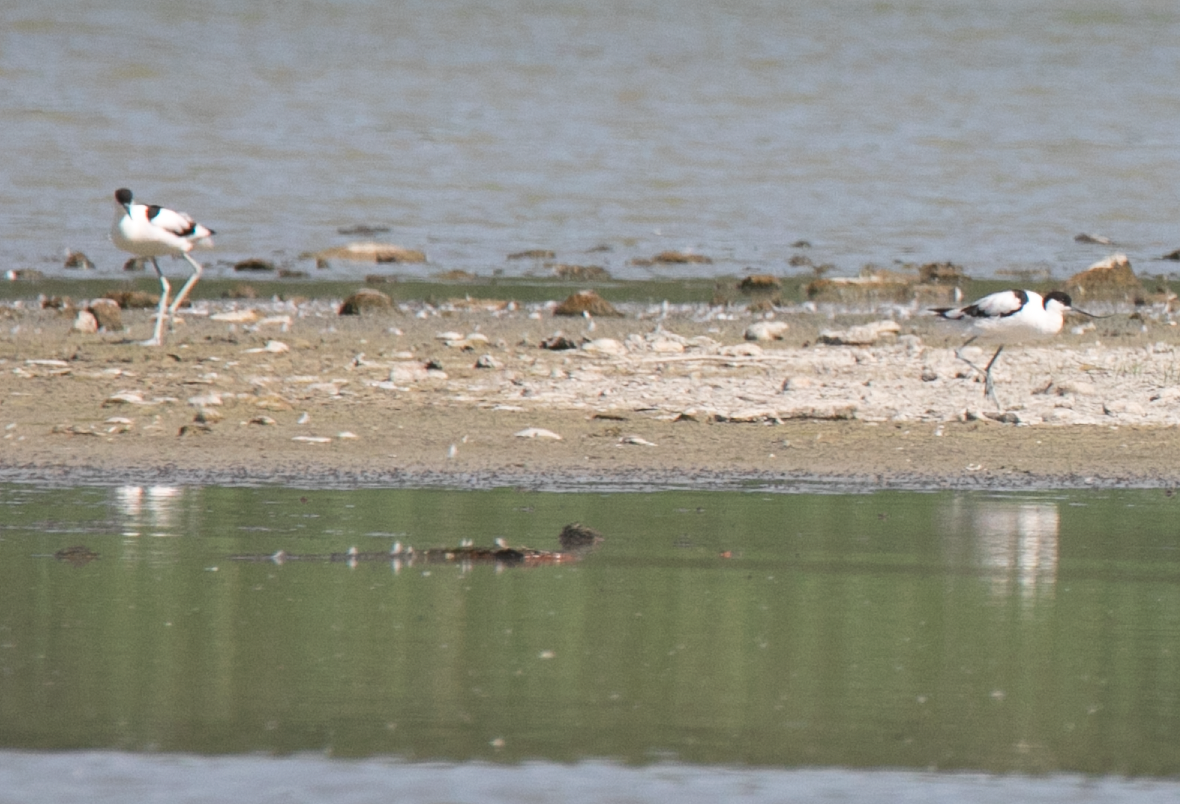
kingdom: Animalia
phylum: Chordata
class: Aves
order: Charadriiformes
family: Recurvirostridae
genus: Recurvirostra
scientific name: Recurvirostra avosetta
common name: Pied avocet
